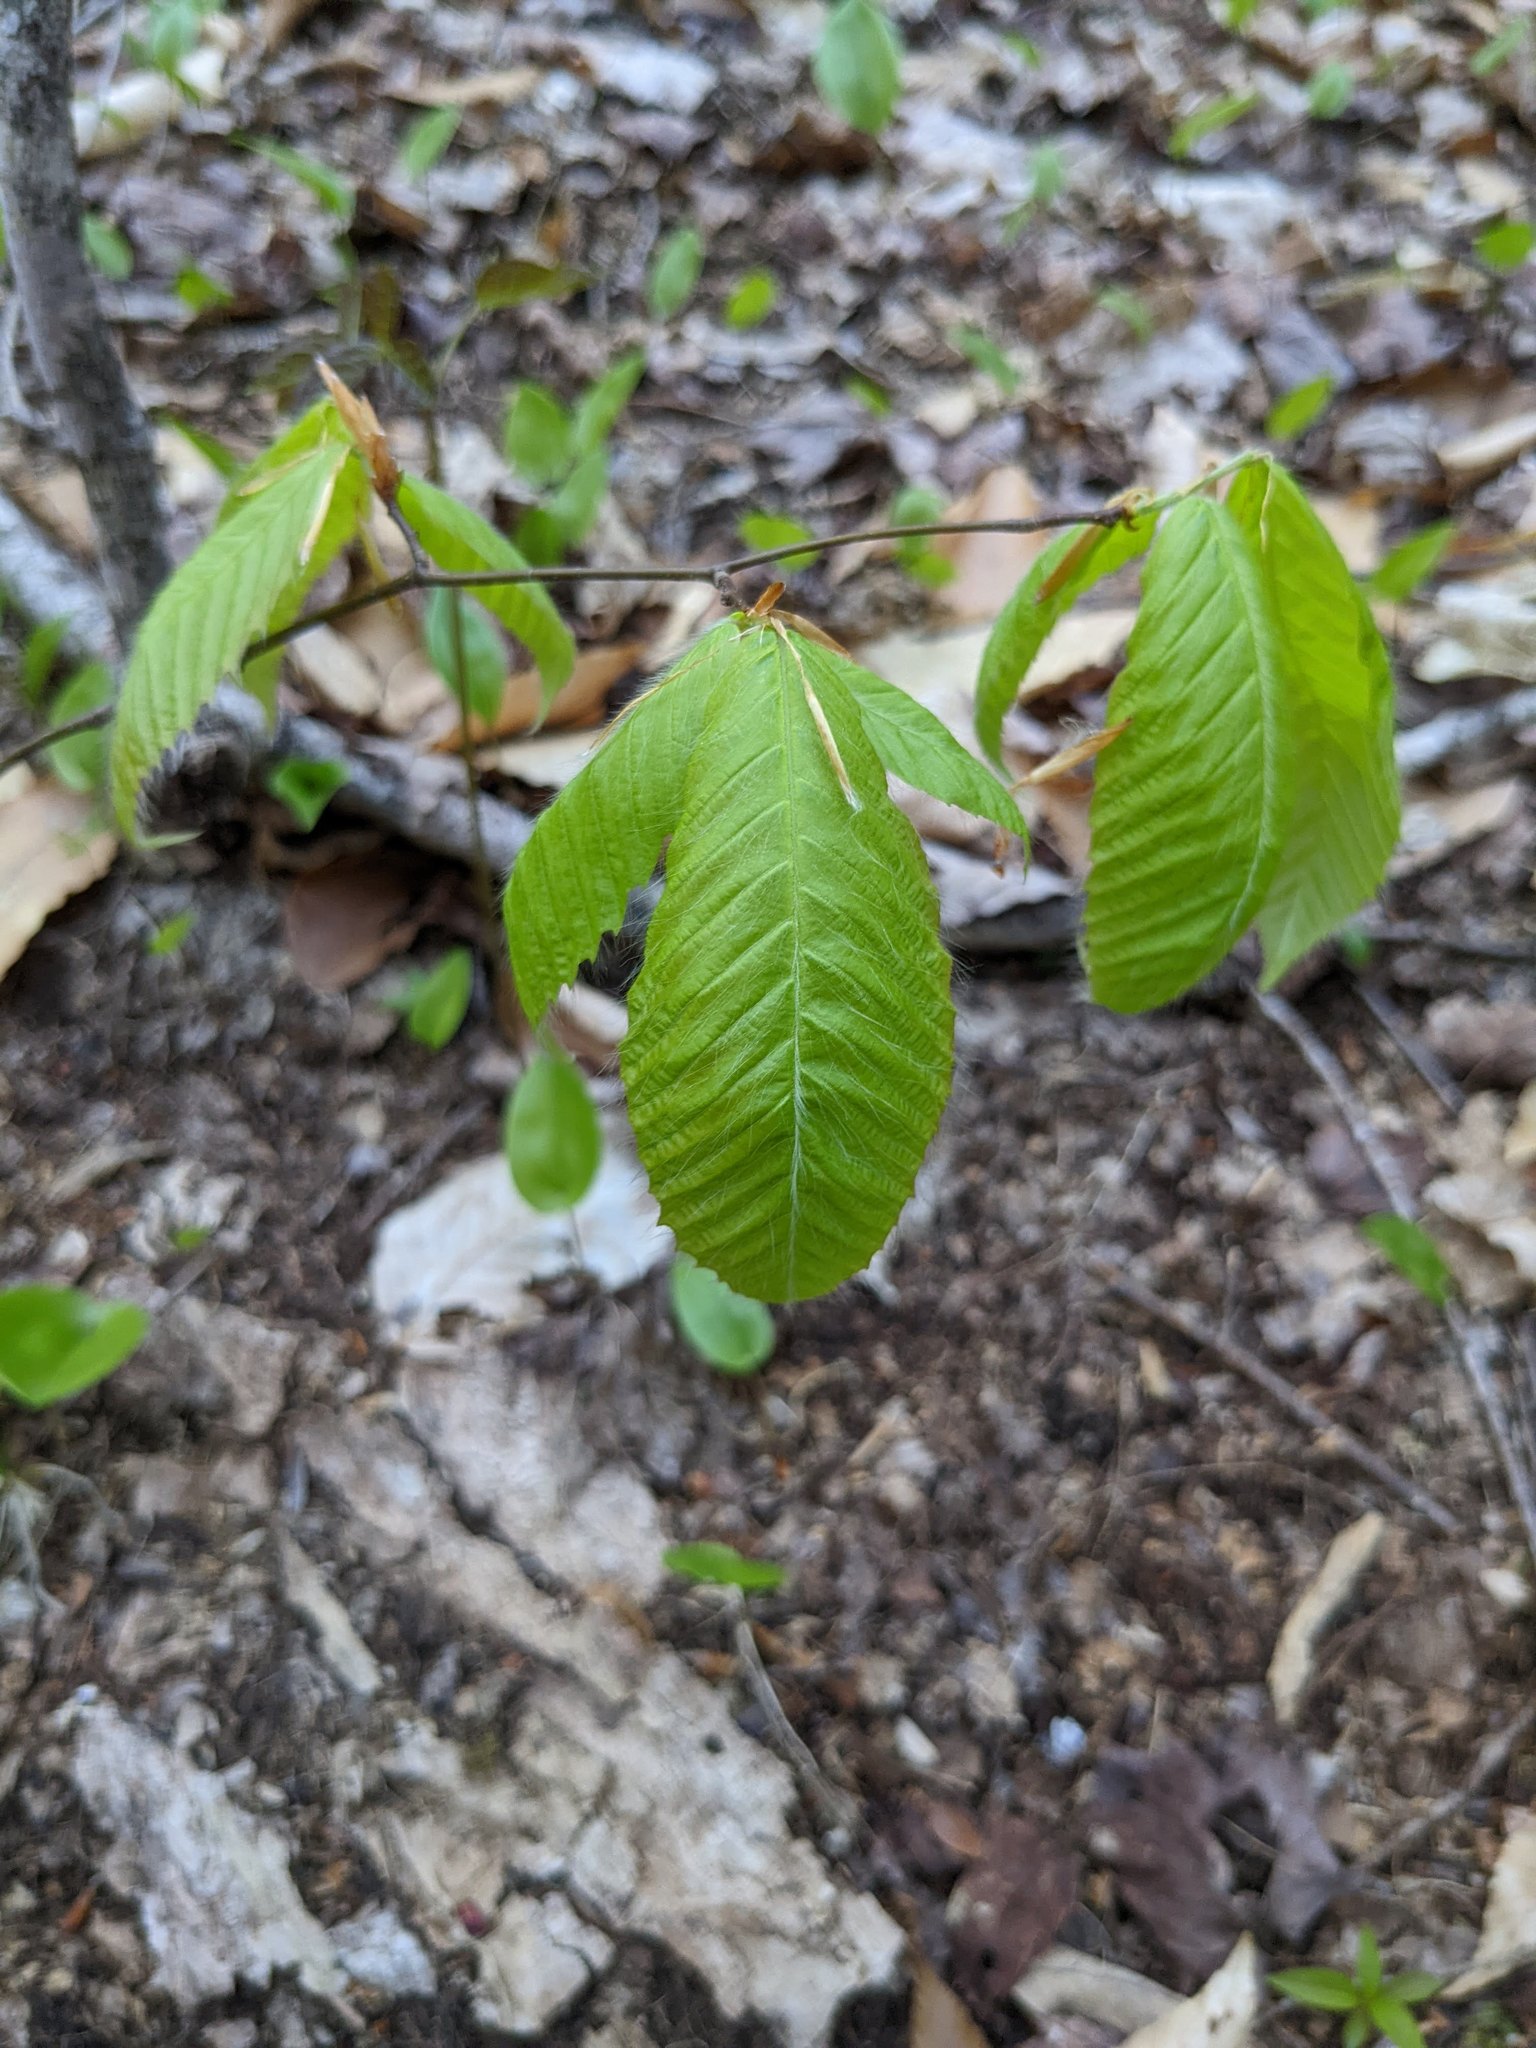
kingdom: Plantae
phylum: Tracheophyta
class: Magnoliopsida
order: Fagales
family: Fagaceae
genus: Fagus
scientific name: Fagus grandifolia
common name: American beech
